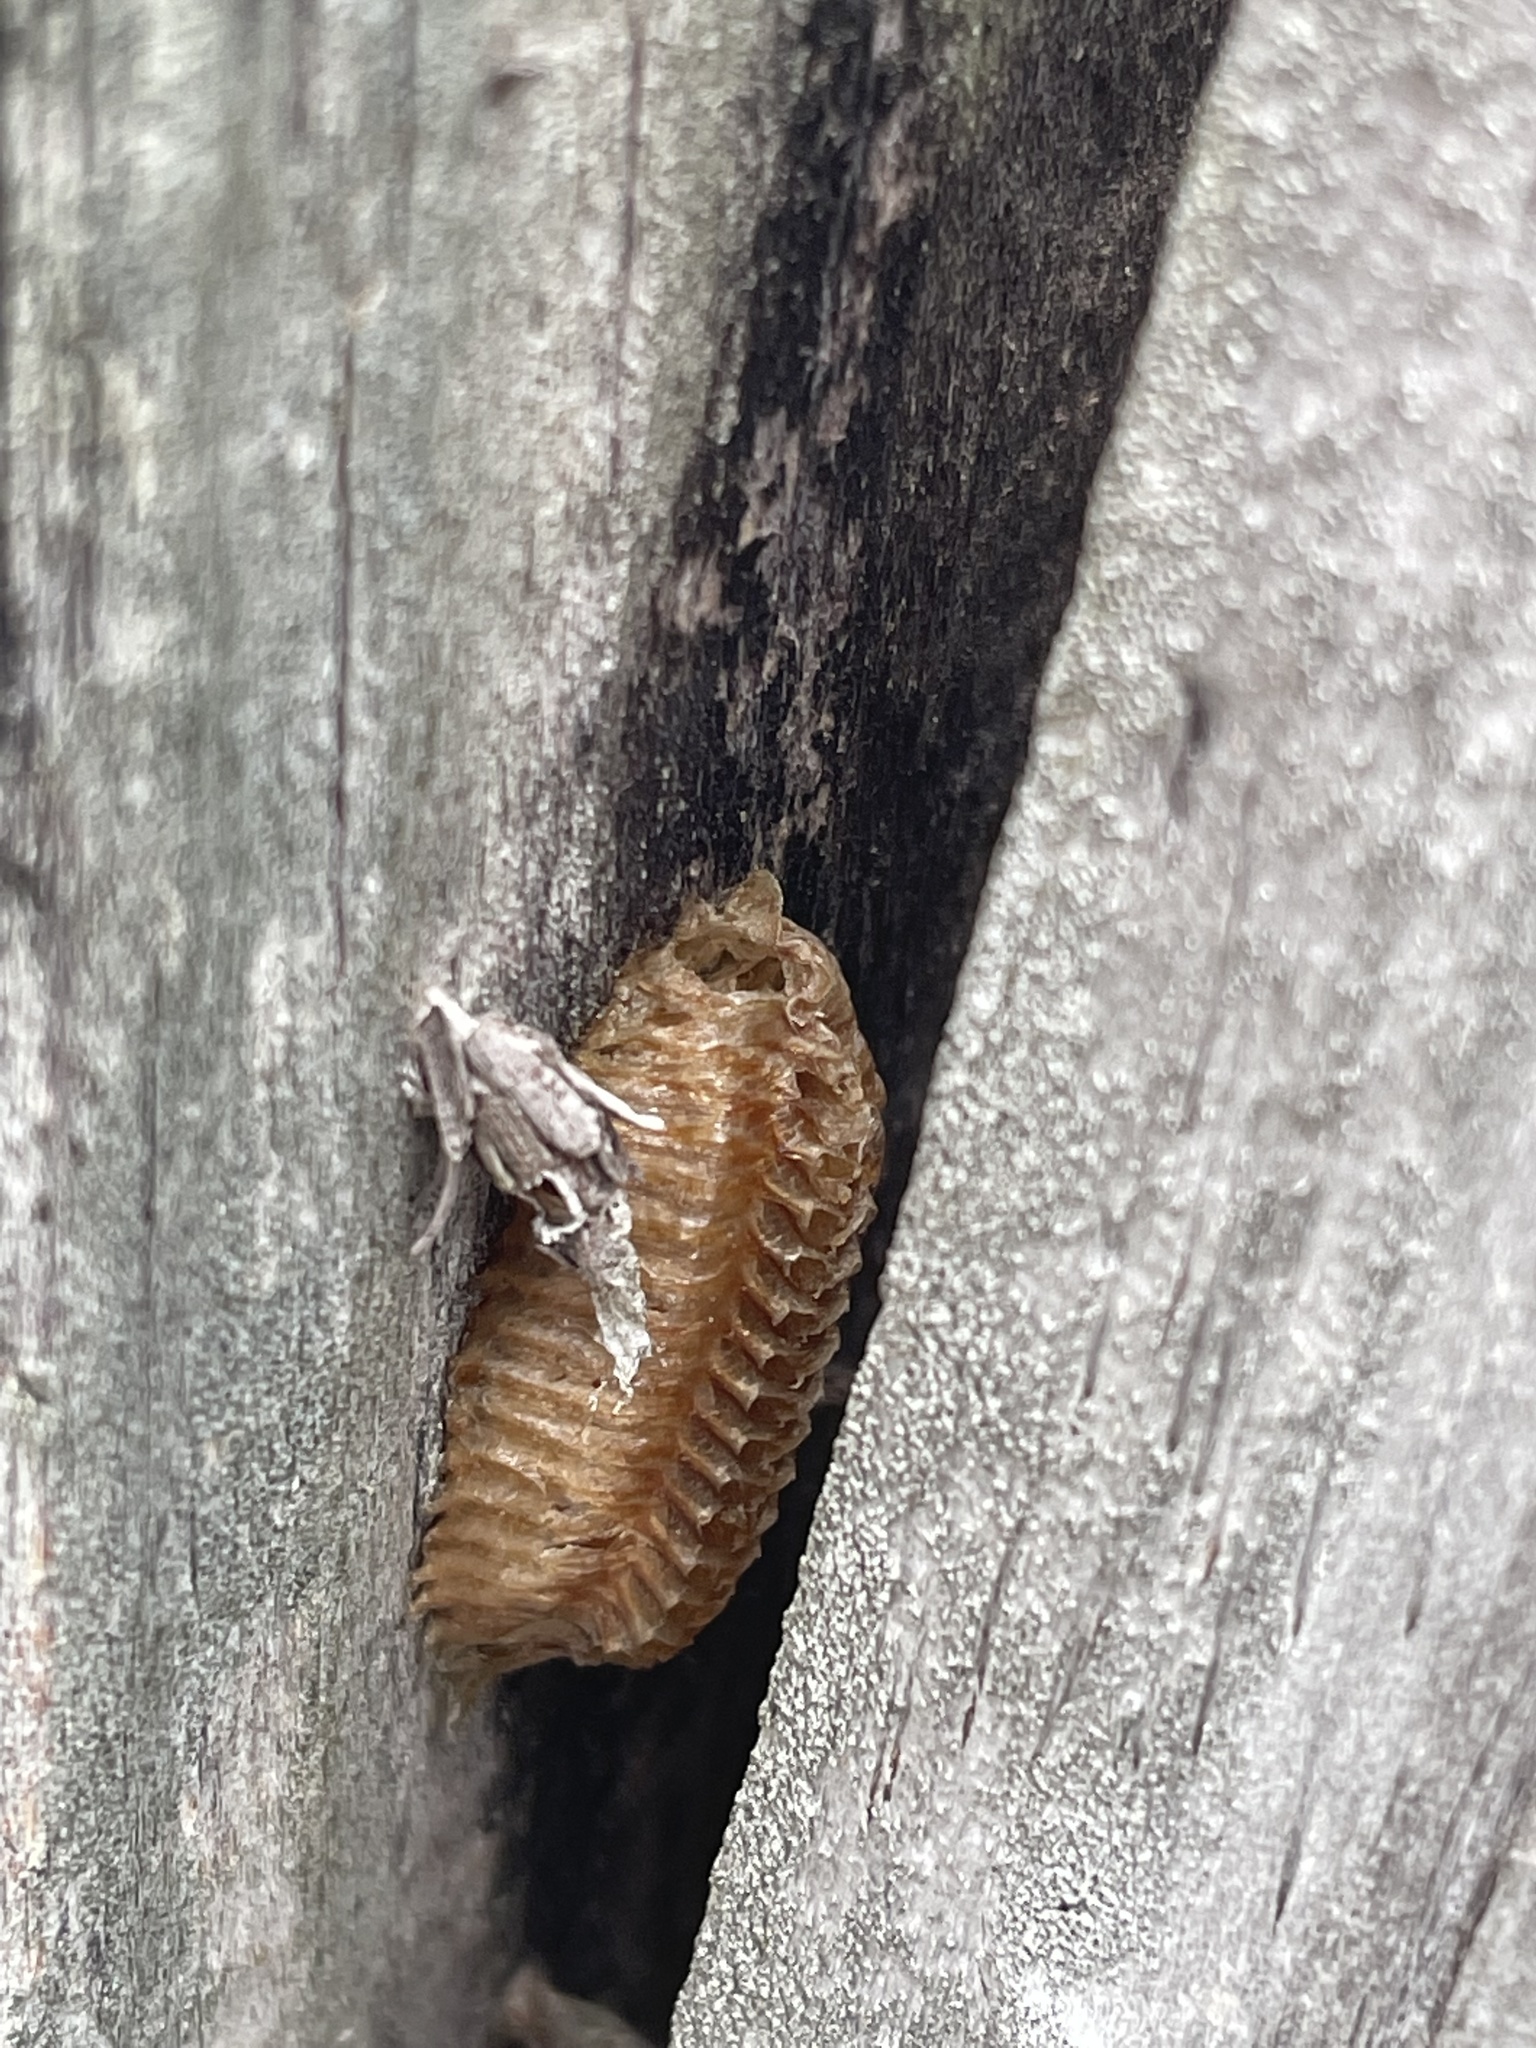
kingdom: Animalia
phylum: Arthropoda
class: Insecta
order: Mantodea
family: Mantidae
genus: Stagmomantis
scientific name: Stagmomantis carolina
